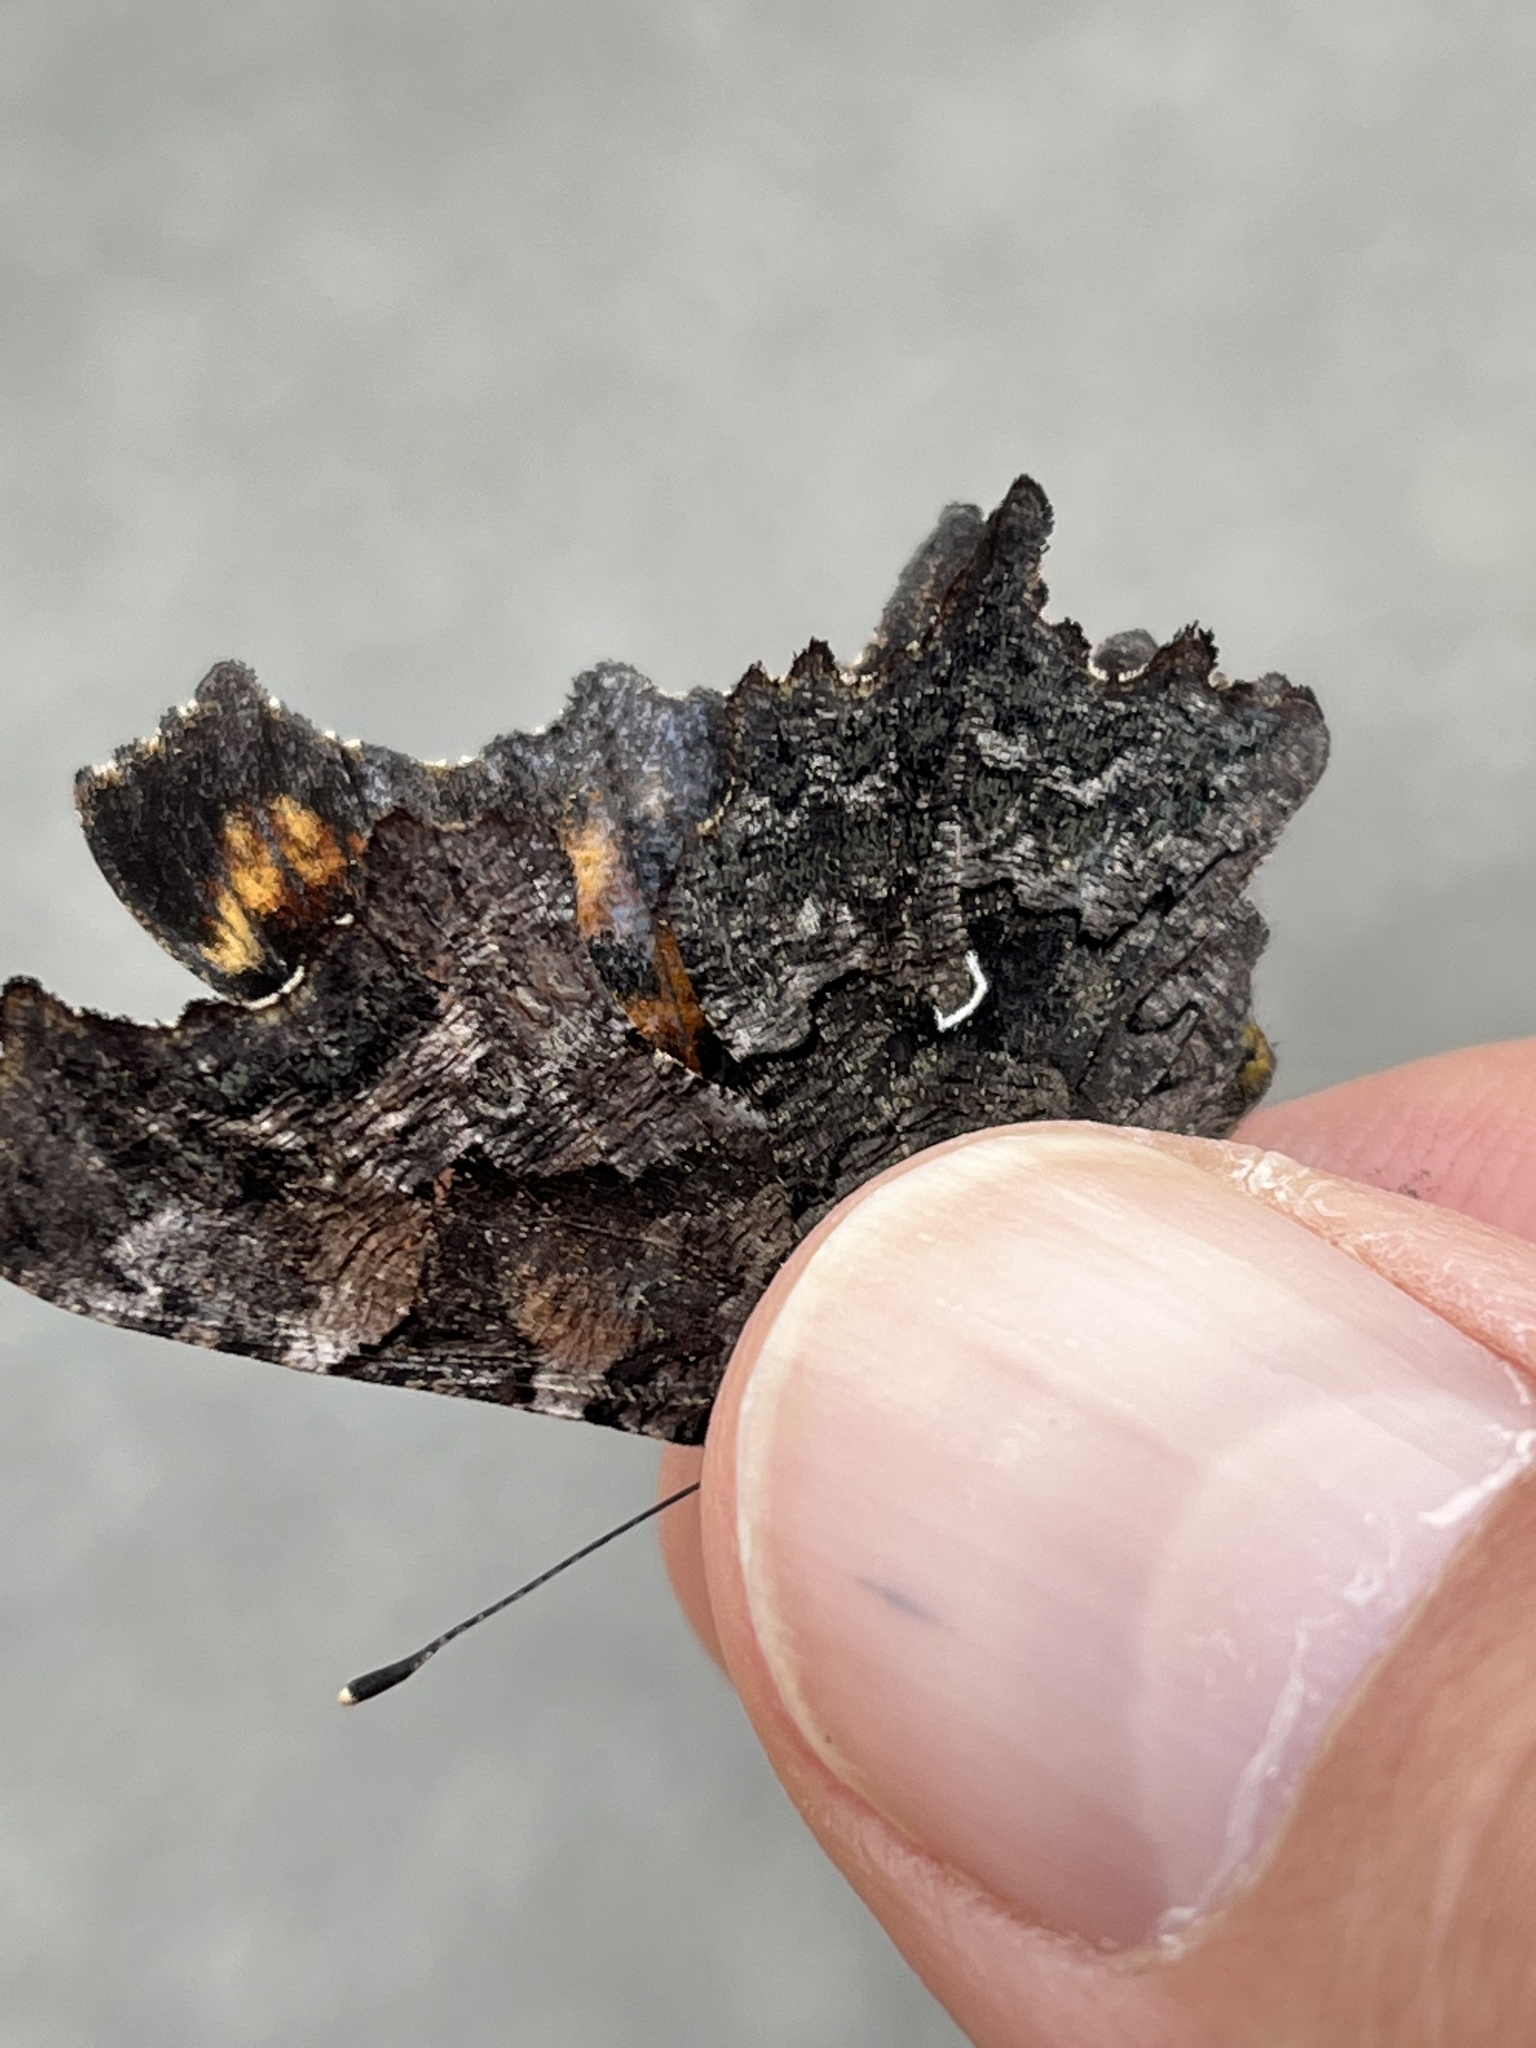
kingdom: Animalia
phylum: Arthropoda
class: Insecta
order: Lepidoptera
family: Nymphalidae
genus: Polygonia
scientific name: Polygonia faunus
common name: Green comma
